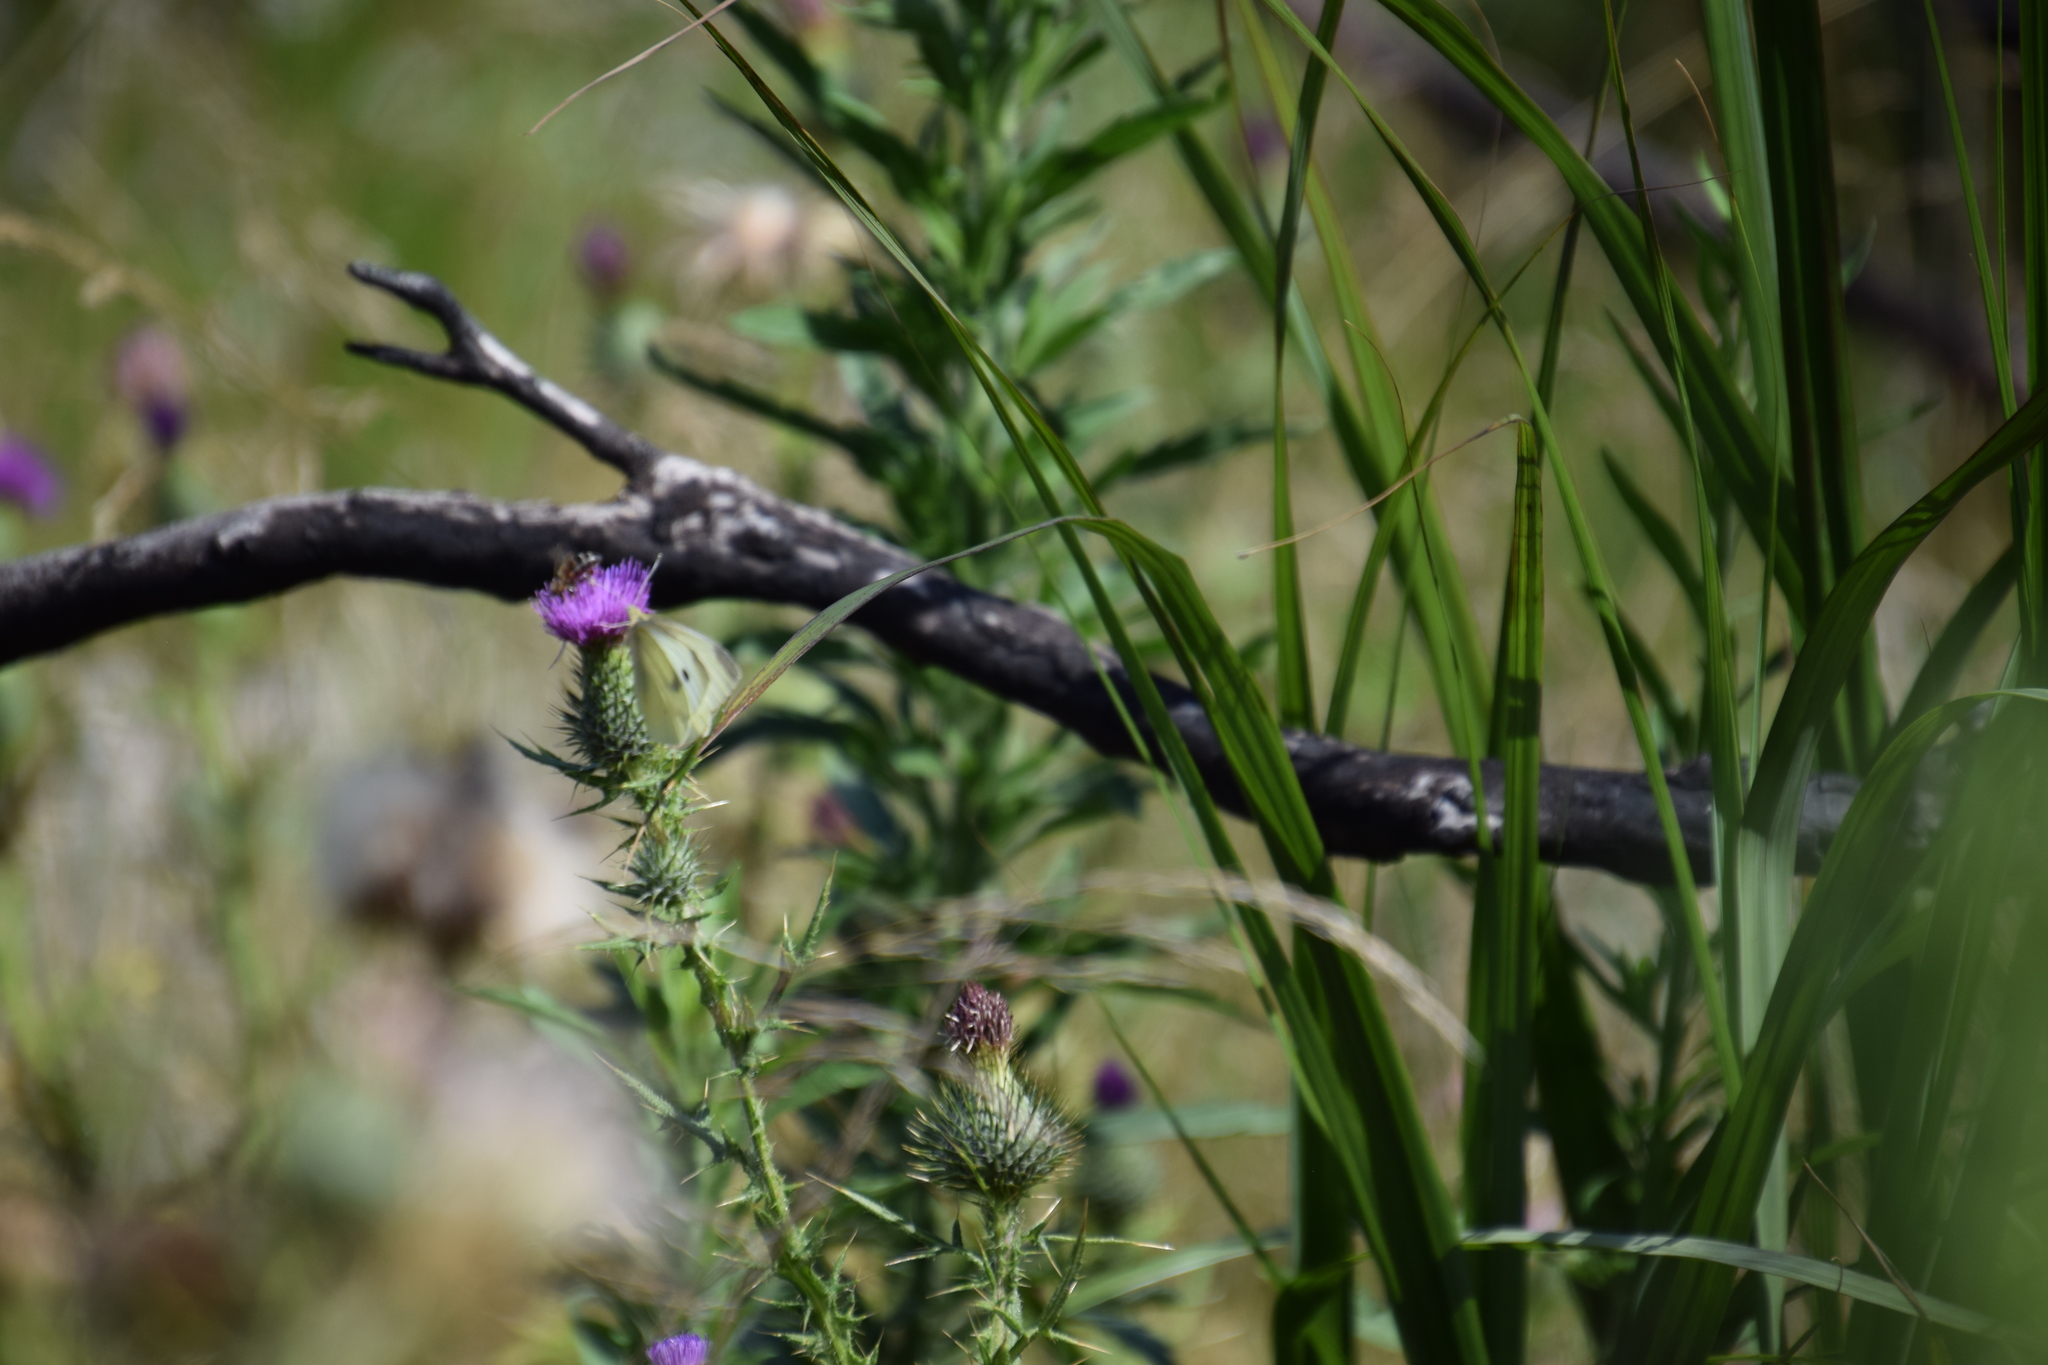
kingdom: Animalia
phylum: Arthropoda
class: Insecta
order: Lepidoptera
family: Pieridae
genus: Pieris
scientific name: Pieris rapae
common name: Small white
